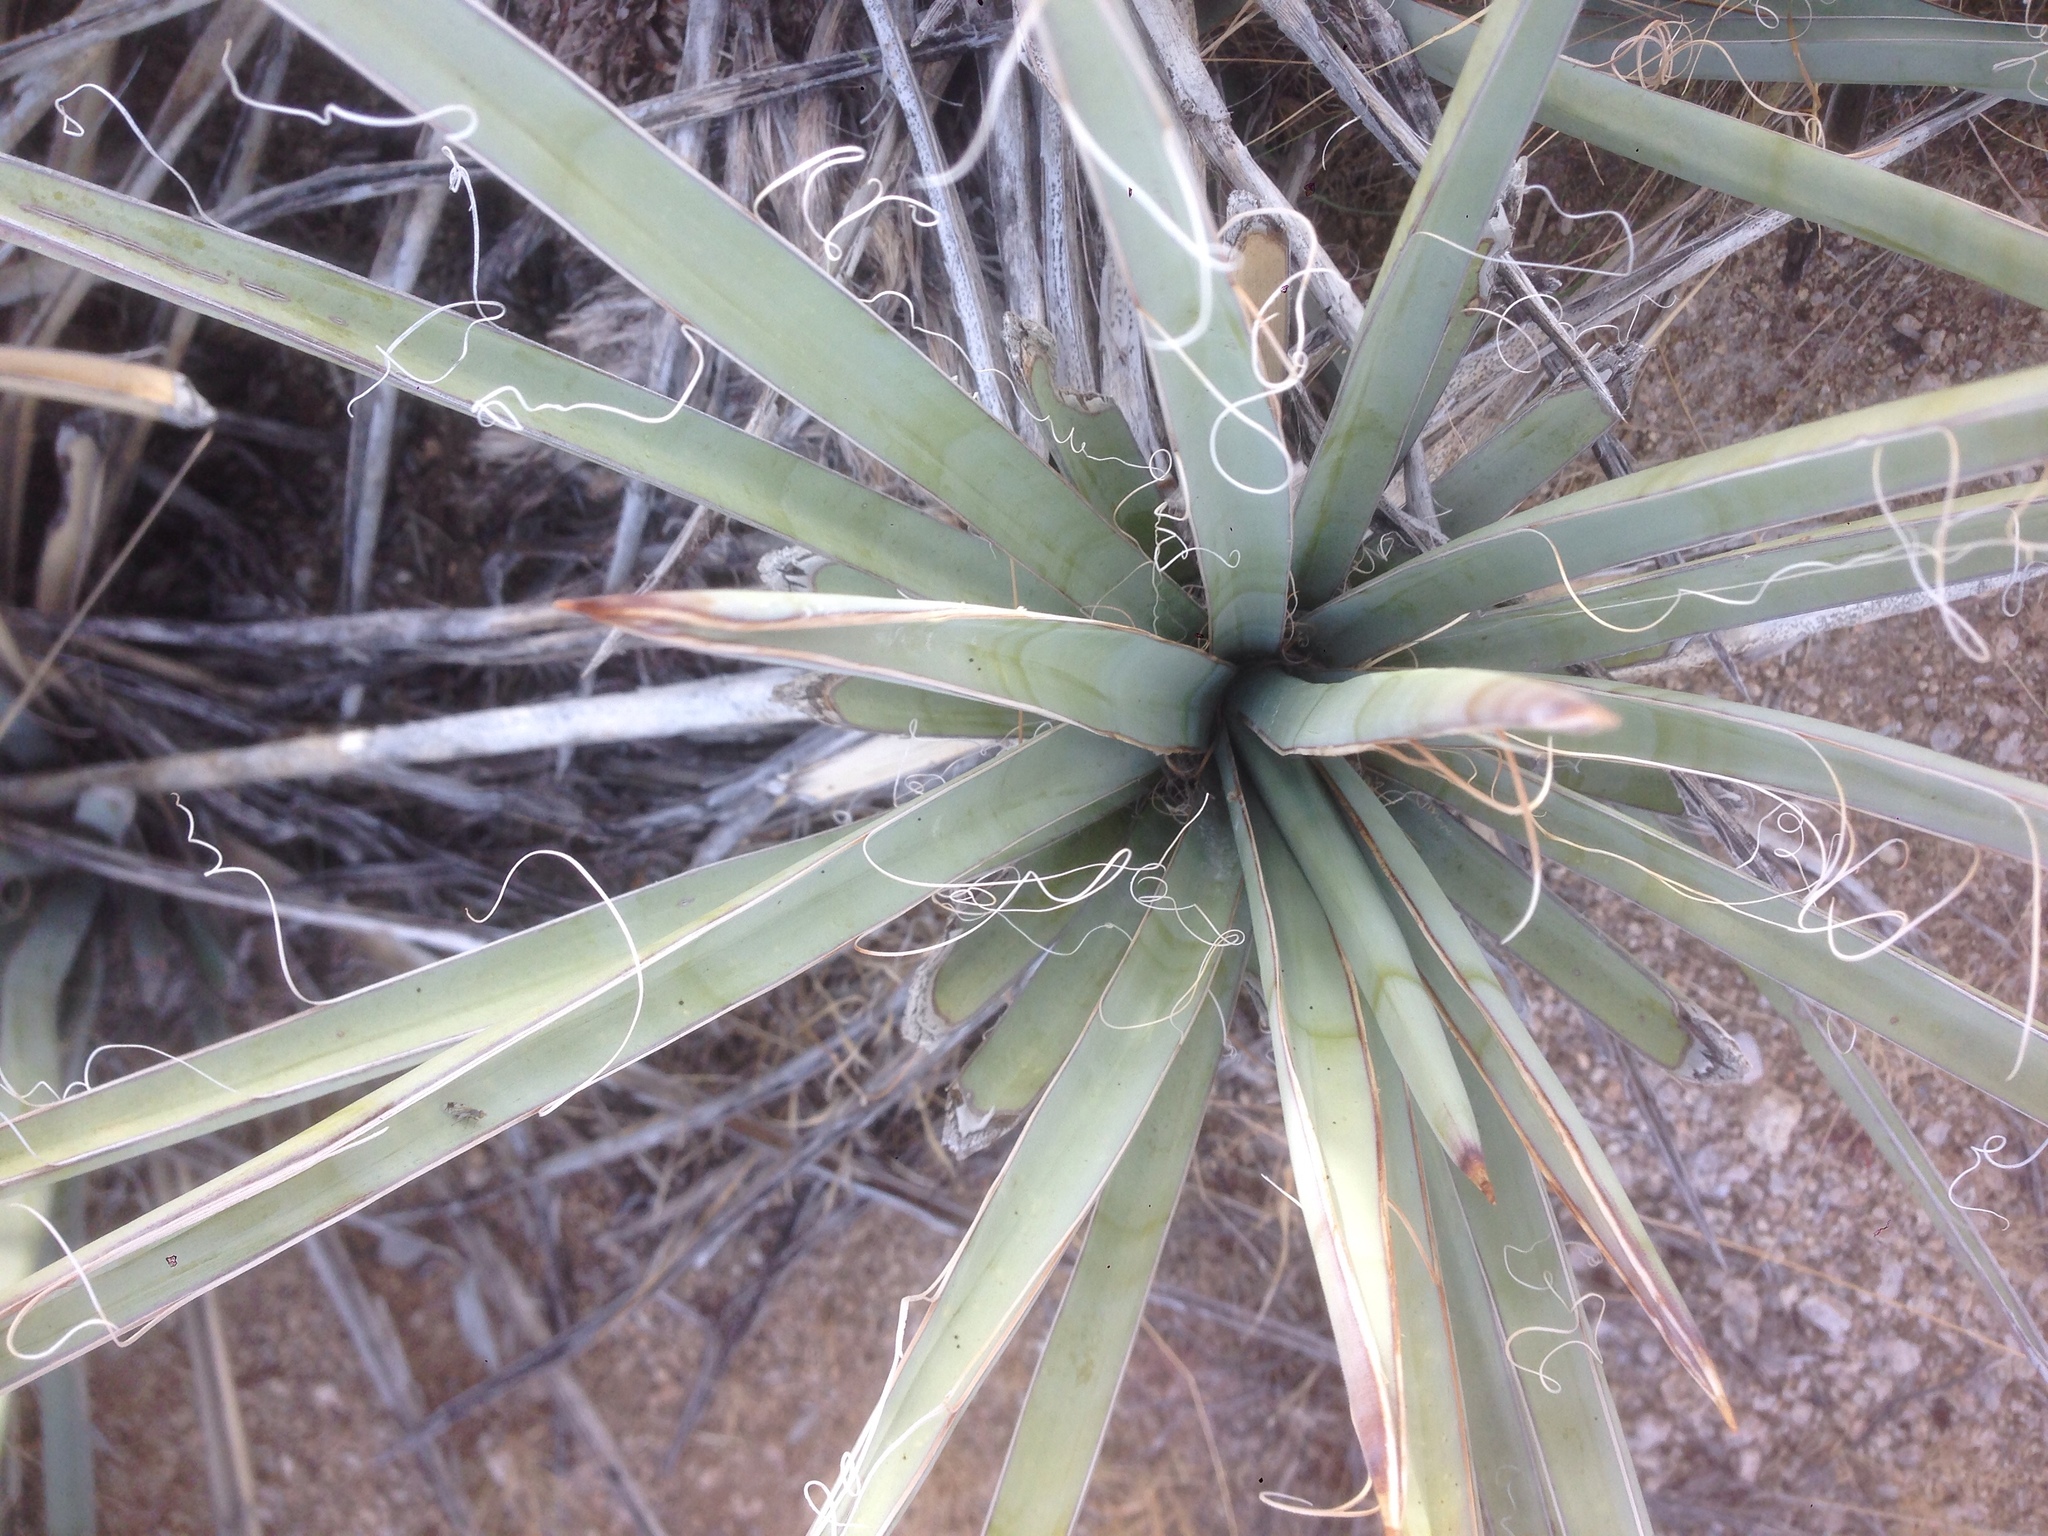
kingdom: Plantae
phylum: Tracheophyta
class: Liliopsida
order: Asparagales
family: Asparagaceae
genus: Yucca
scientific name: Yucca baccata
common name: Banana yucca
